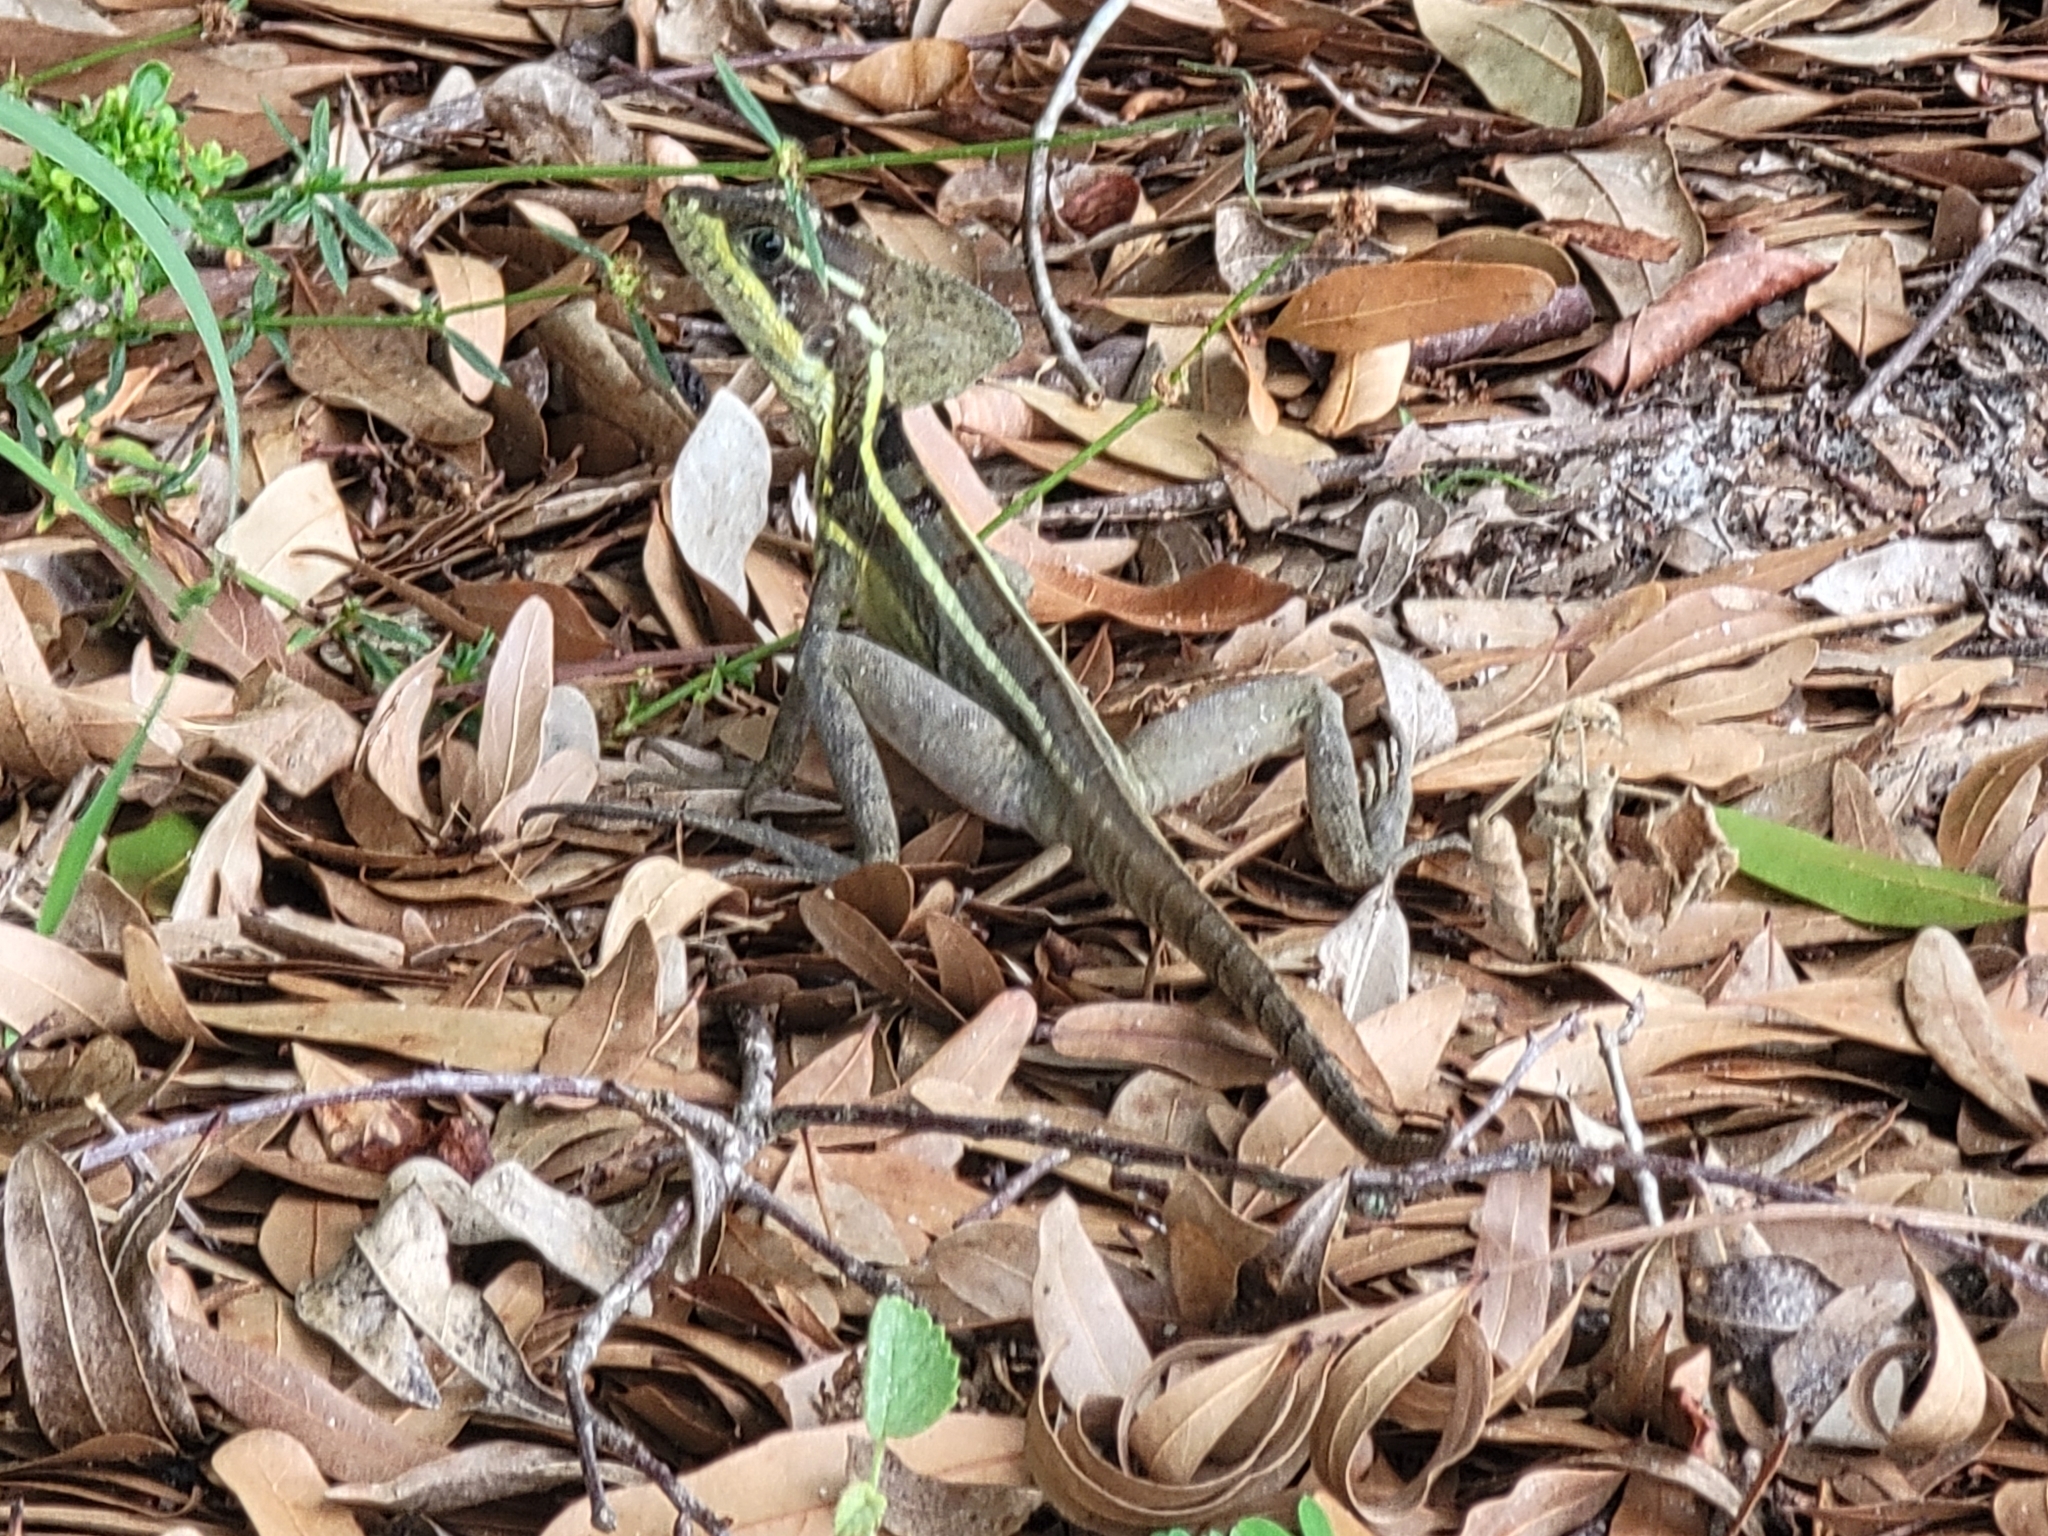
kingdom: Animalia
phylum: Chordata
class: Squamata
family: Corytophanidae
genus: Basiliscus
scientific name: Basiliscus vittatus
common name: Brown basilisk
